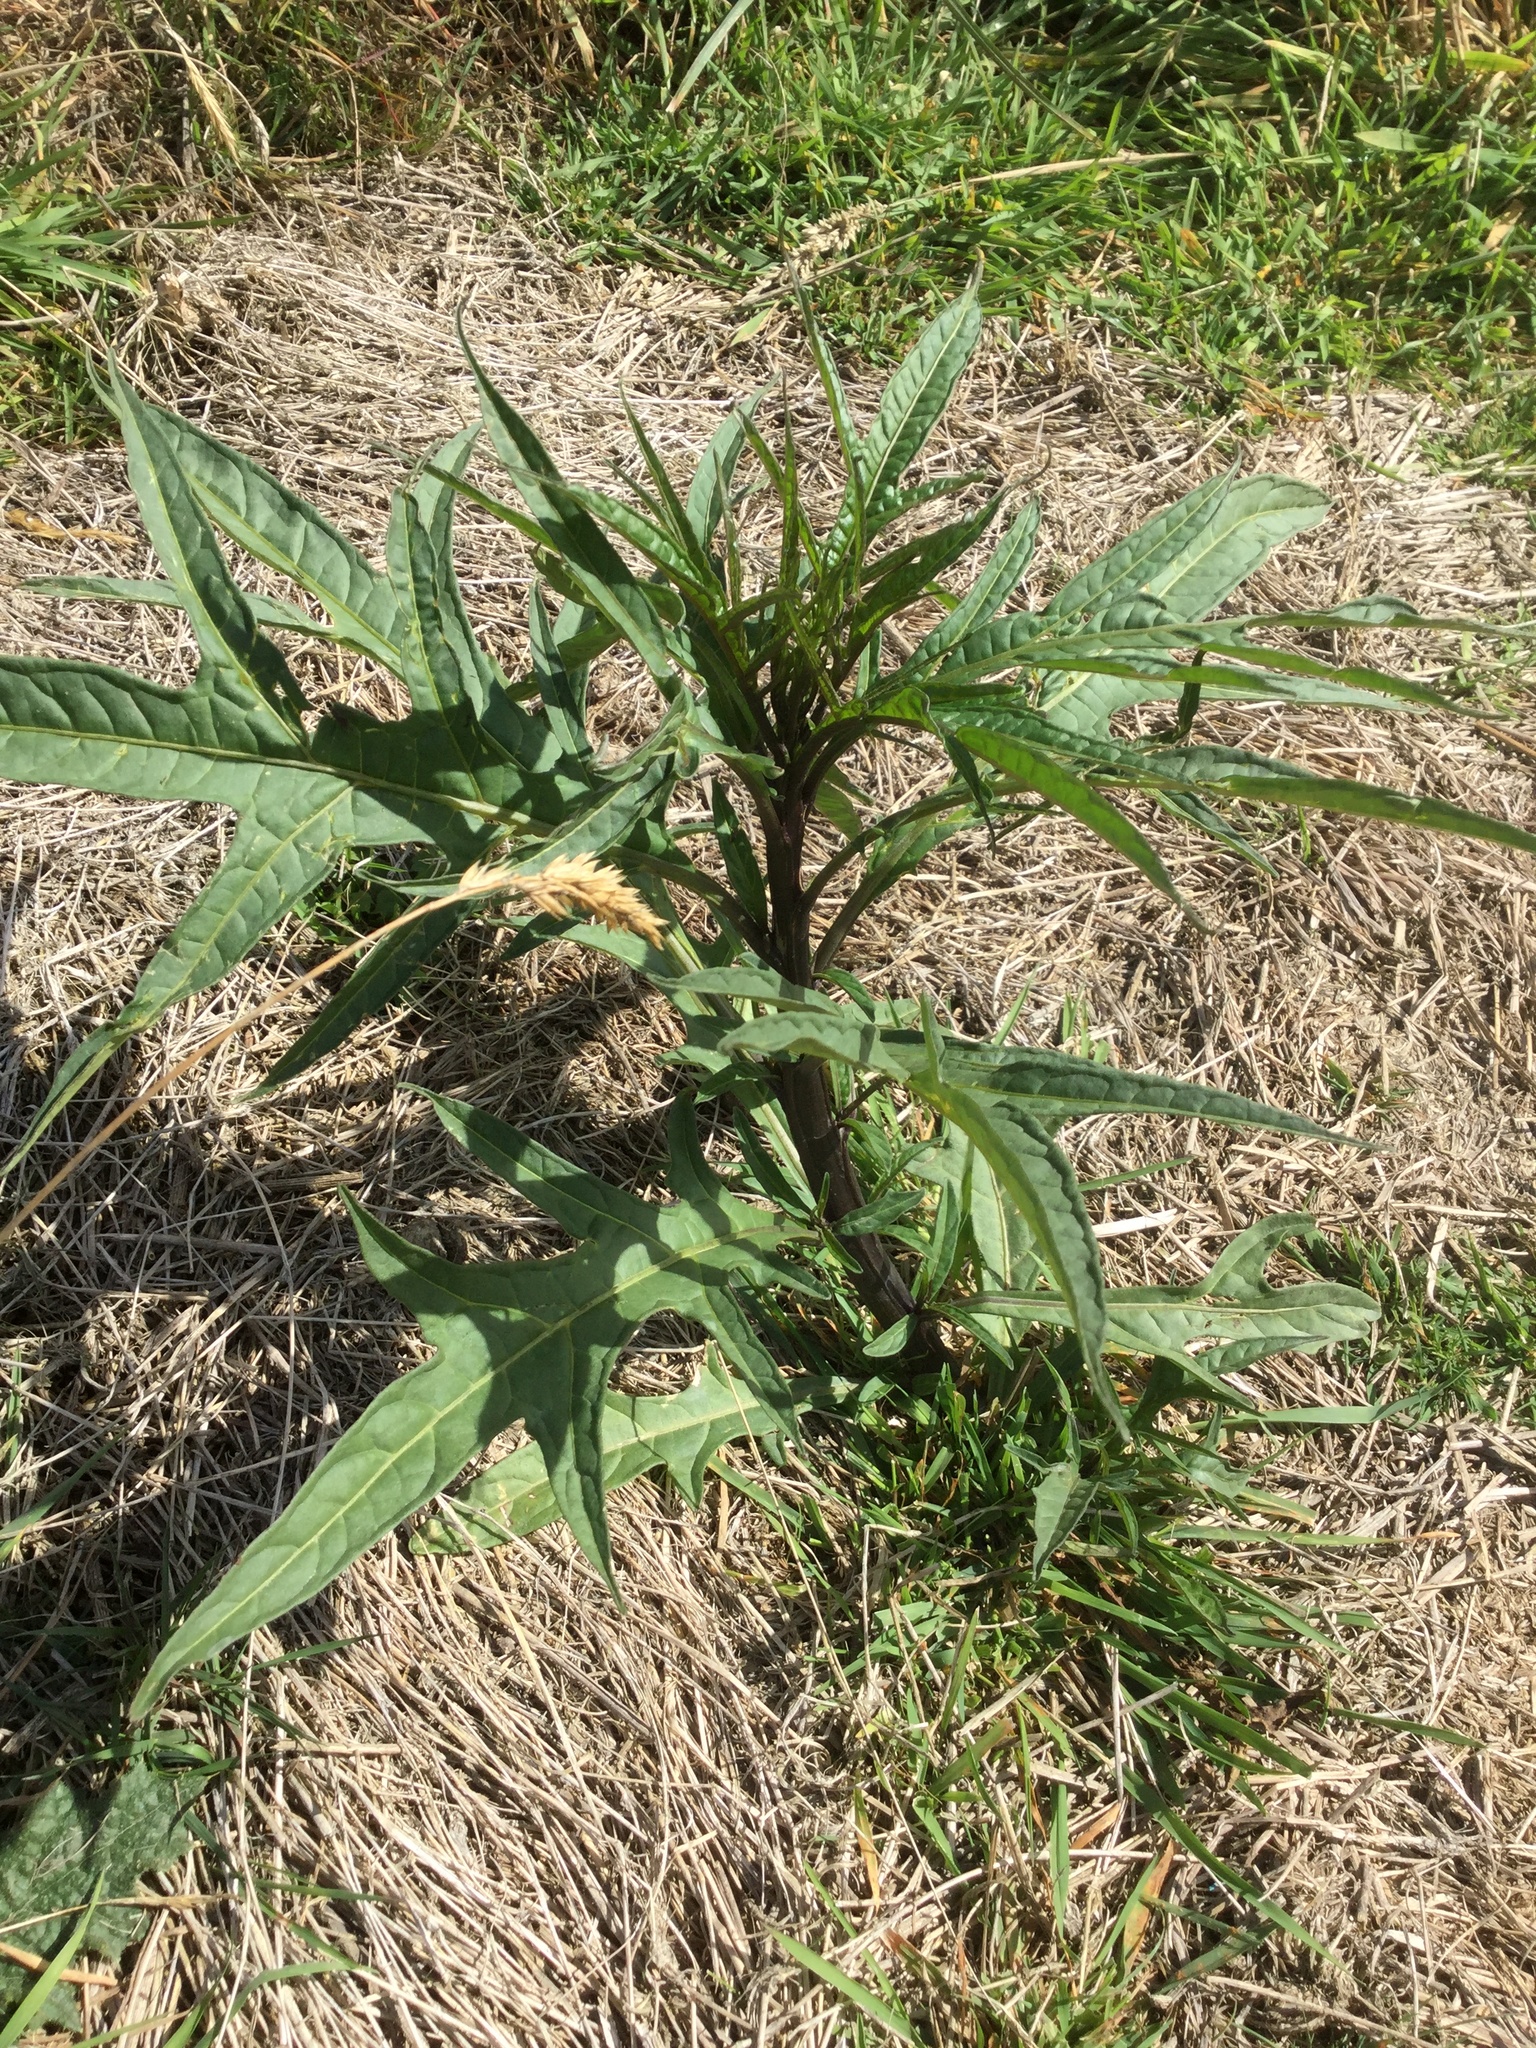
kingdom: Plantae
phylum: Tracheophyta
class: Magnoliopsida
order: Solanales
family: Solanaceae
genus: Solanum
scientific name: Solanum laciniatum
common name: Kangaroo-apple
